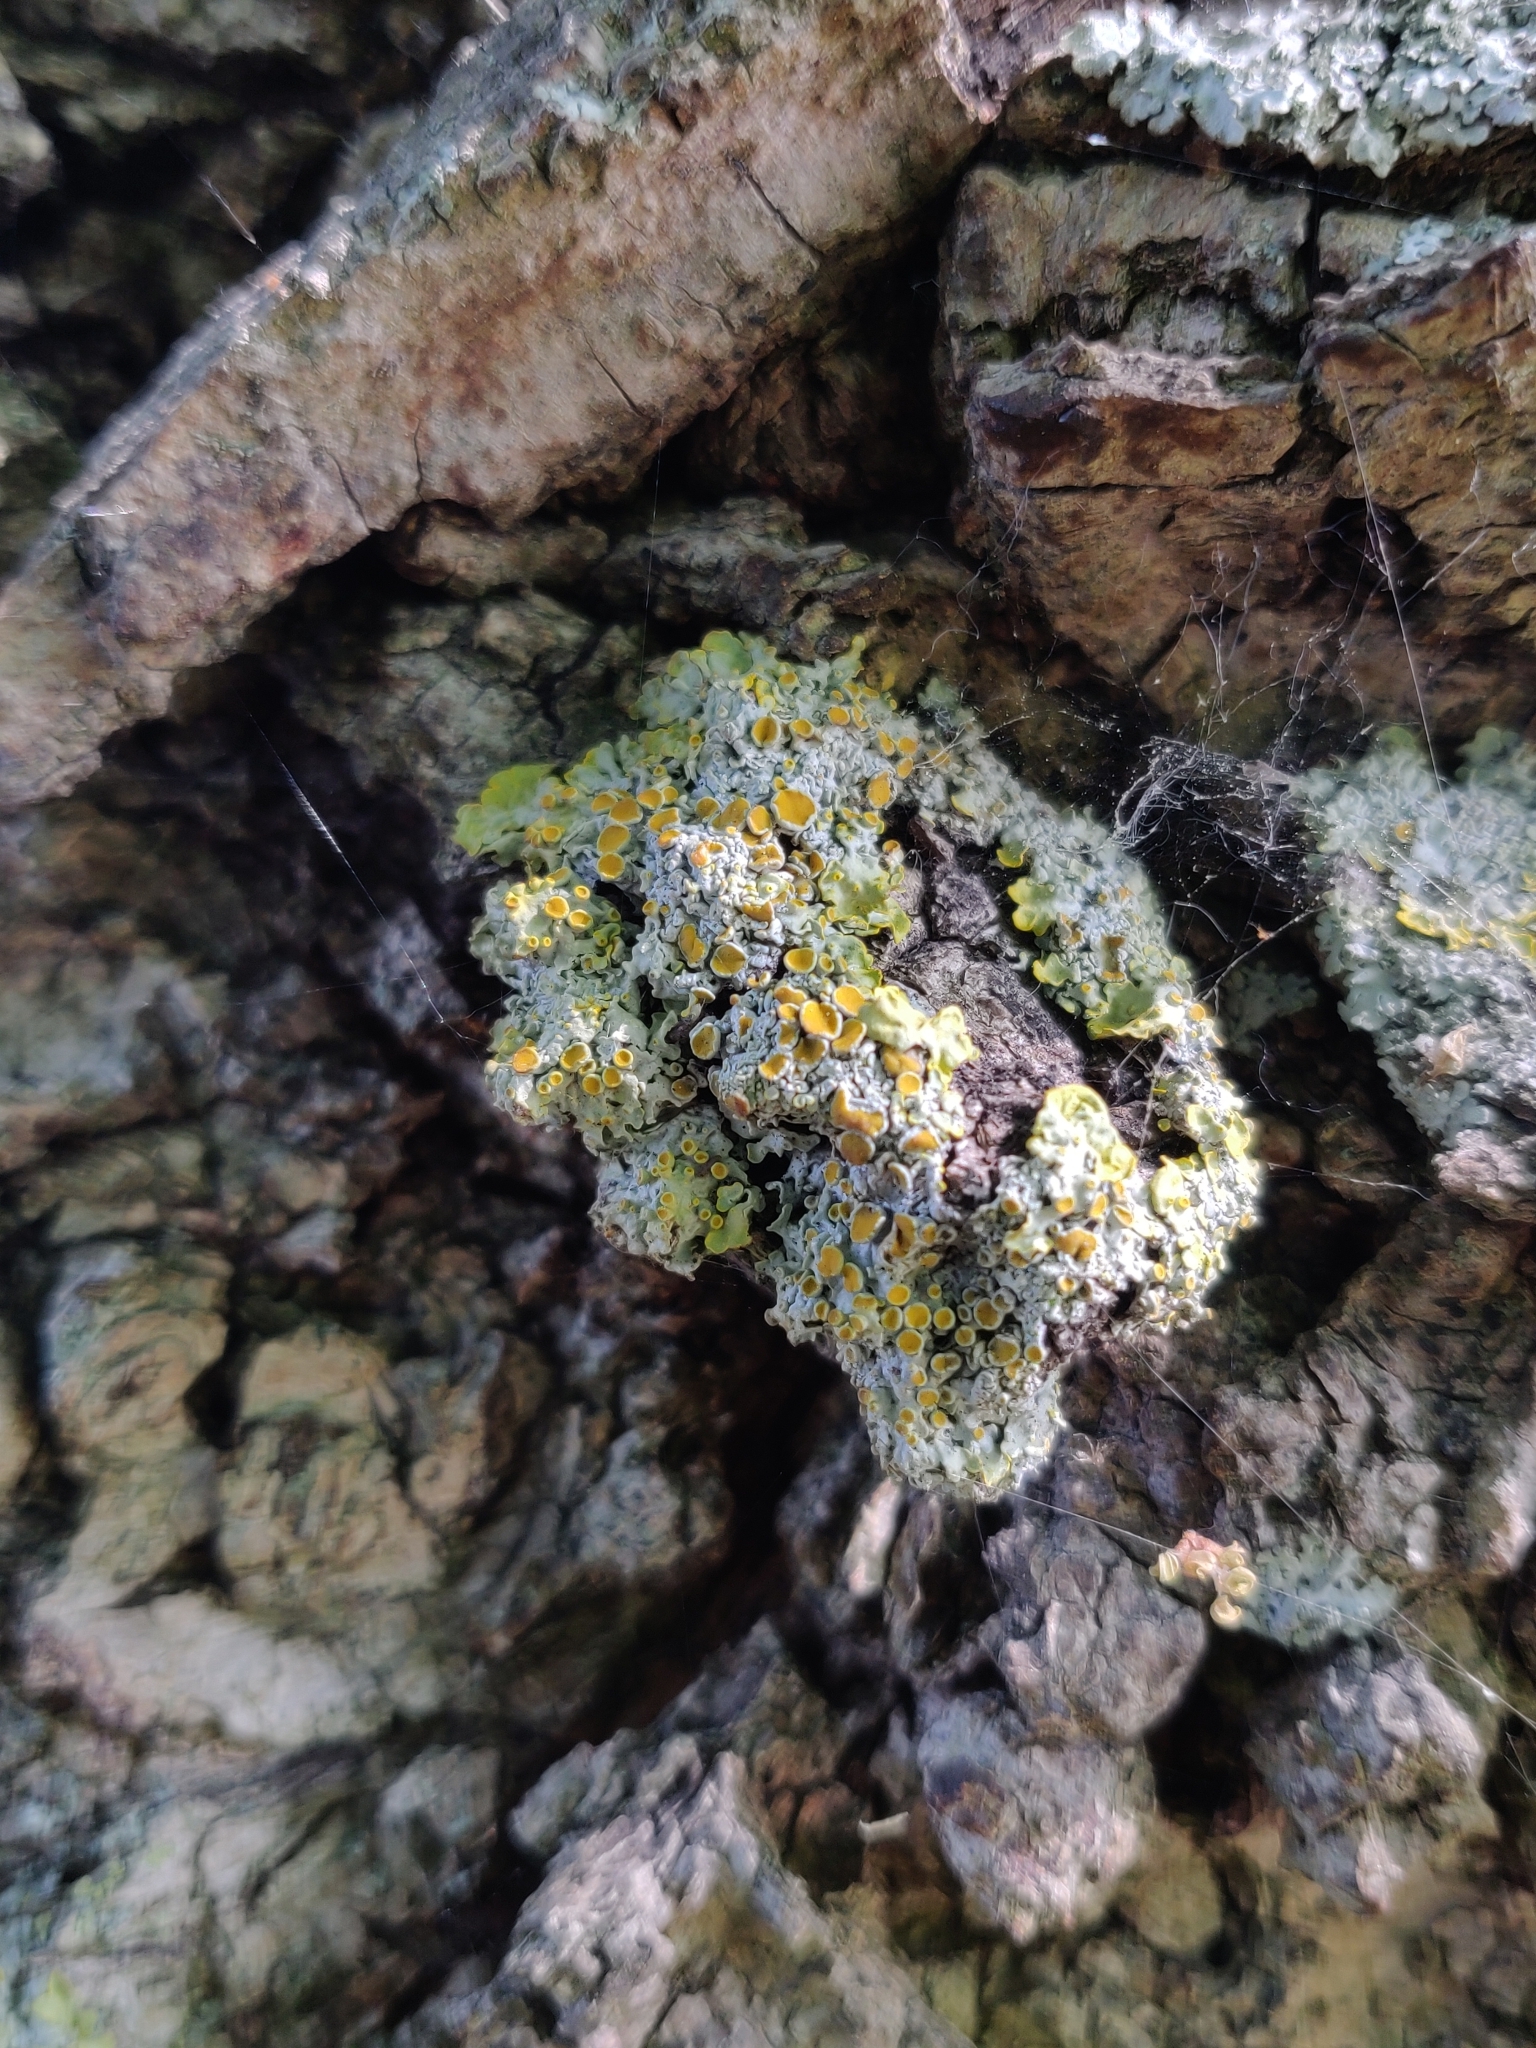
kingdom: Fungi
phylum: Ascomycota
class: Lecanoromycetes
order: Teloschistales
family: Teloschistaceae
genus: Xanthoria
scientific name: Xanthoria parietina
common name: Common orange lichen
